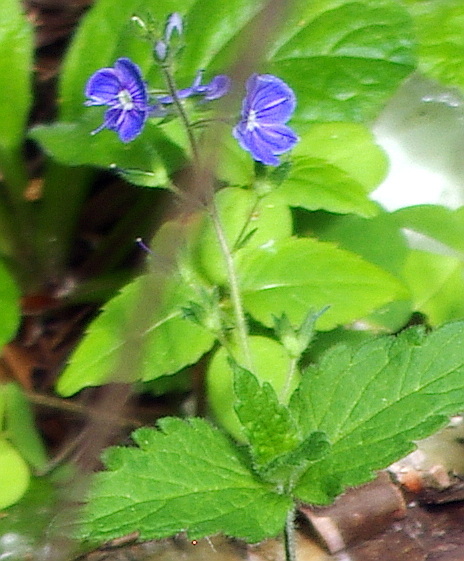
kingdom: Plantae
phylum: Tracheophyta
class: Magnoliopsida
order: Lamiales
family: Plantaginaceae
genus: Veronica
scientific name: Veronica chamaedrys
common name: Germander speedwell
